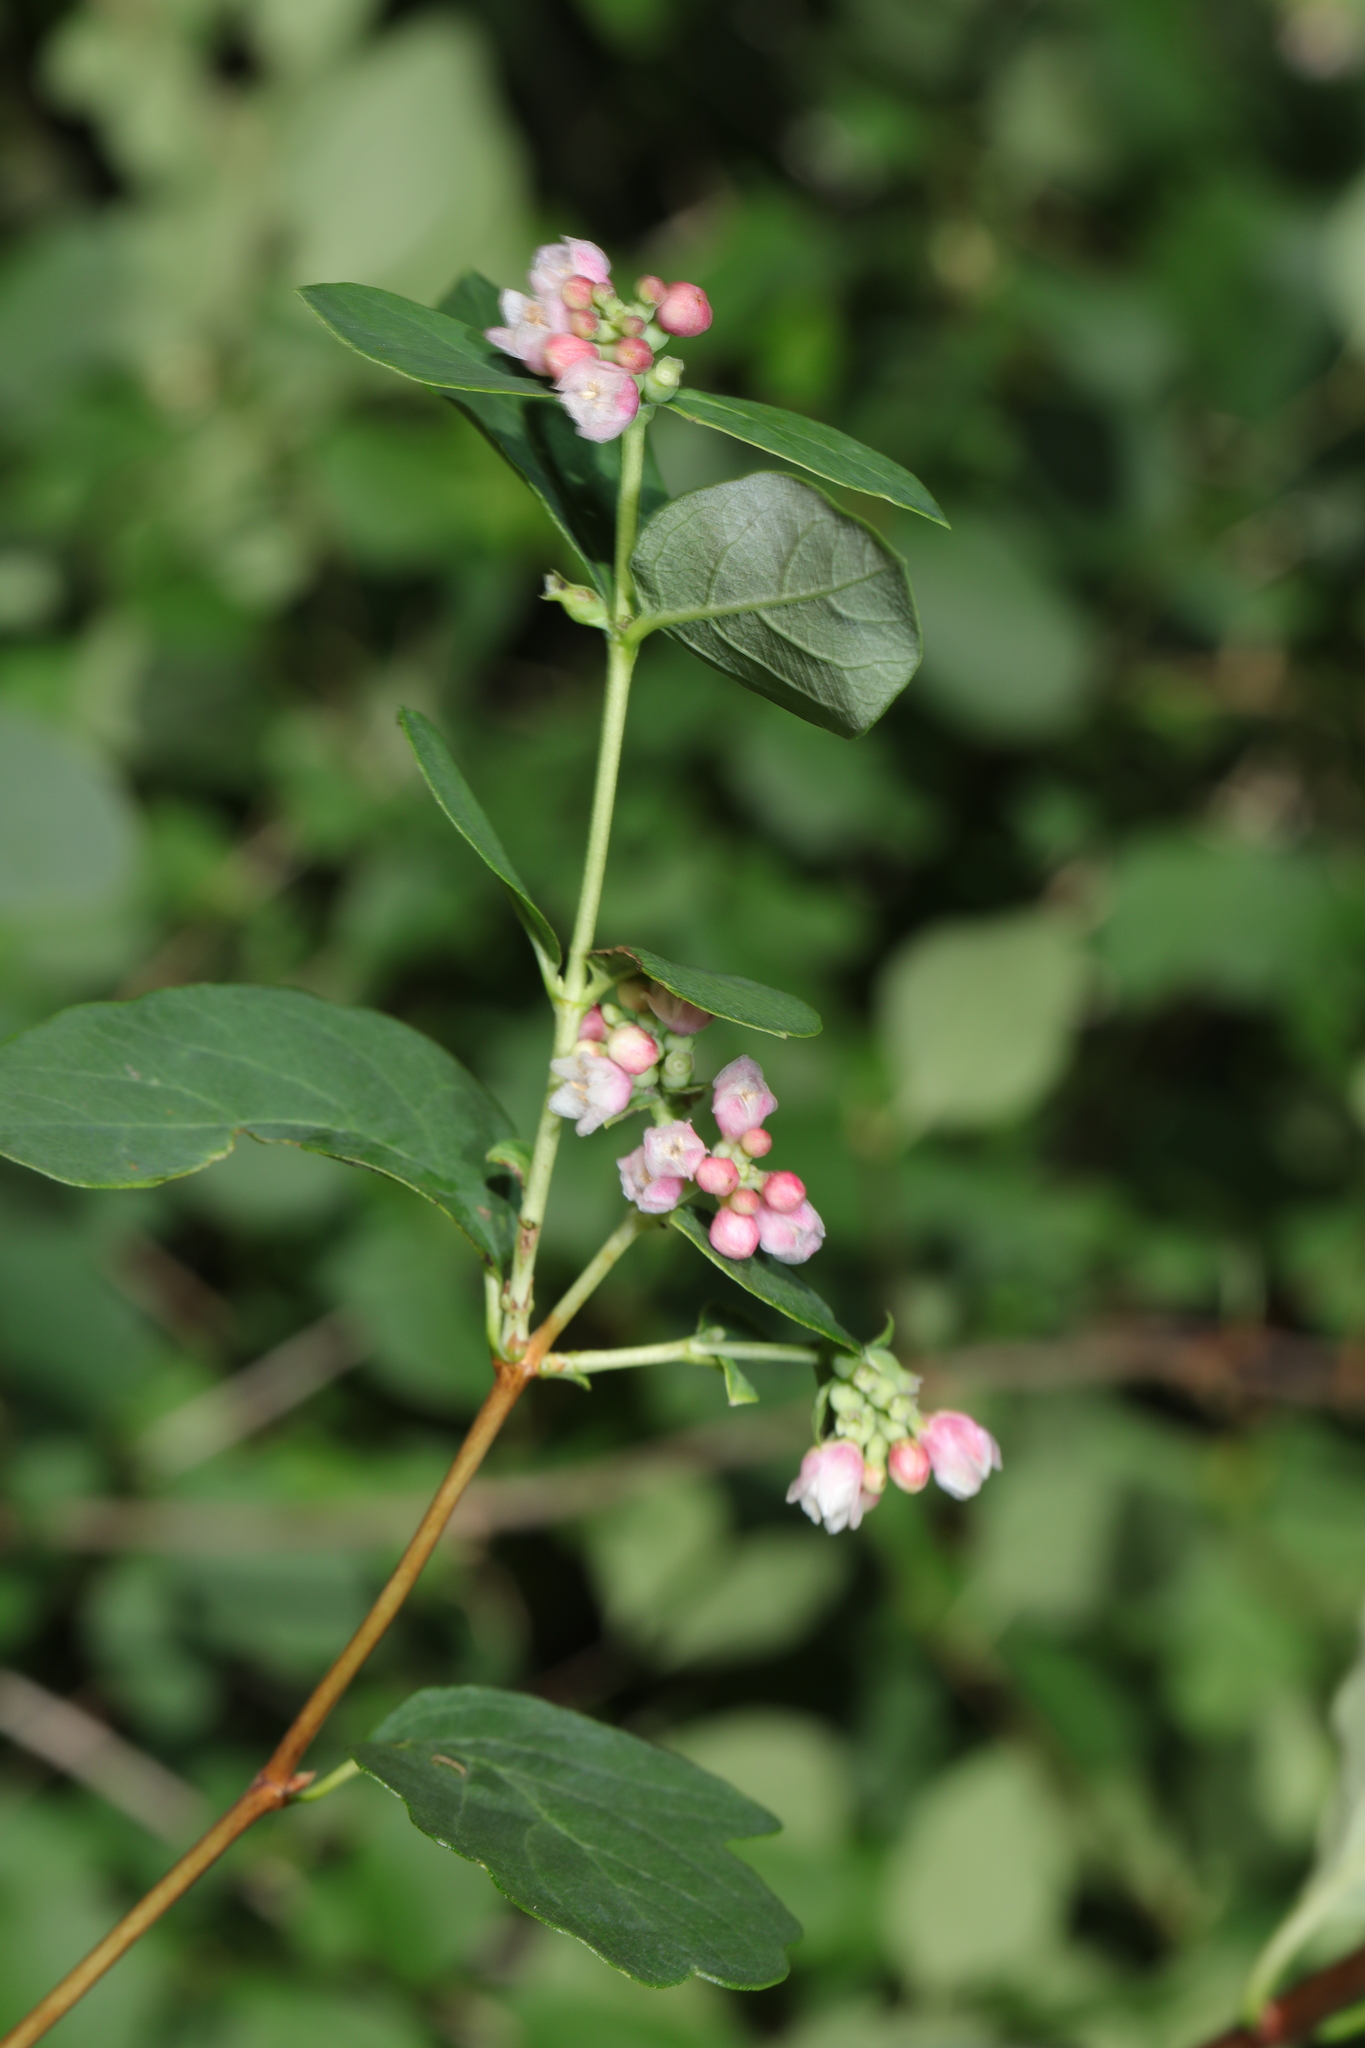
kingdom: Plantae
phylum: Tracheophyta
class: Magnoliopsida
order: Dipsacales
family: Caprifoliaceae
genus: Symphoricarpos
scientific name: Symphoricarpos albus
